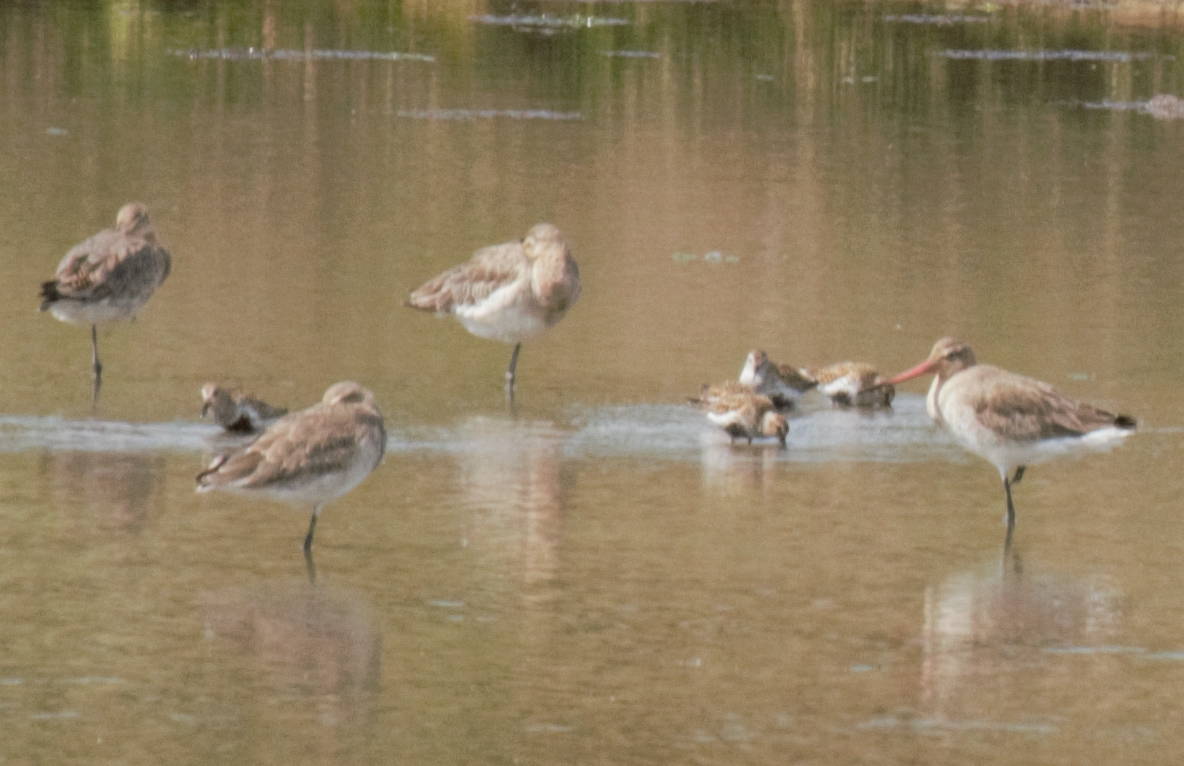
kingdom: Animalia
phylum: Chordata
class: Aves
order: Charadriiformes
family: Scolopacidae
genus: Calidris
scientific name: Calidris alpina
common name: Dunlin
